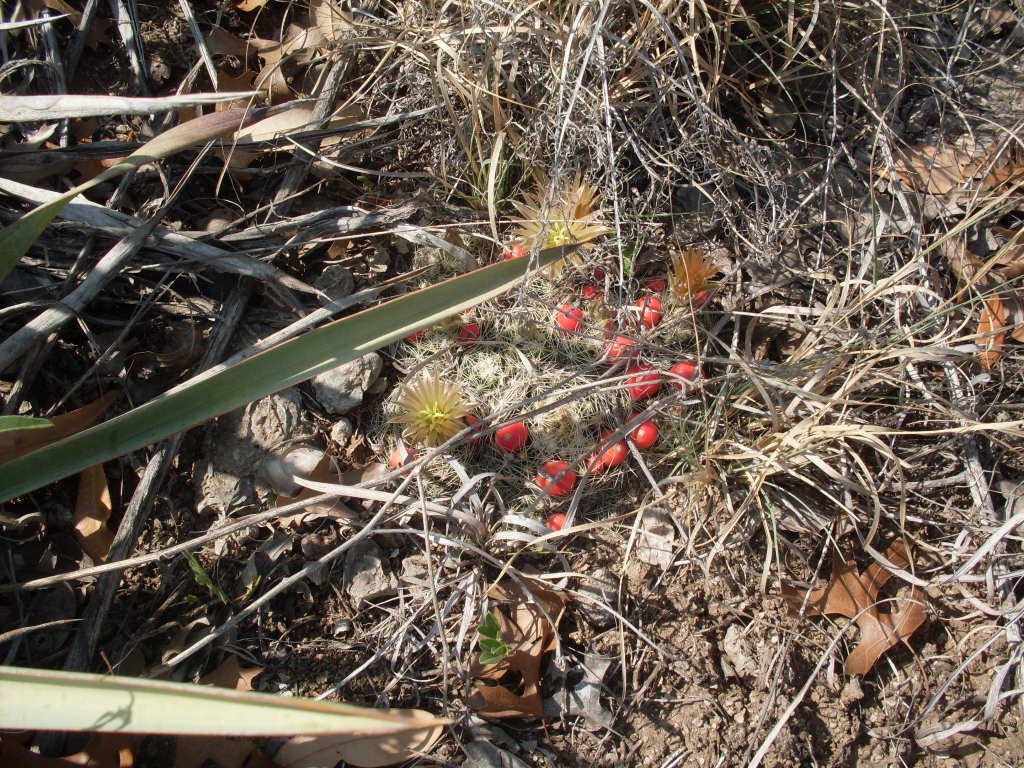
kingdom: Plantae
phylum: Tracheophyta
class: Magnoliopsida
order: Caryophyllales
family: Cactaceae
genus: Pelecyphora
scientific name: Pelecyphora missouriensis
